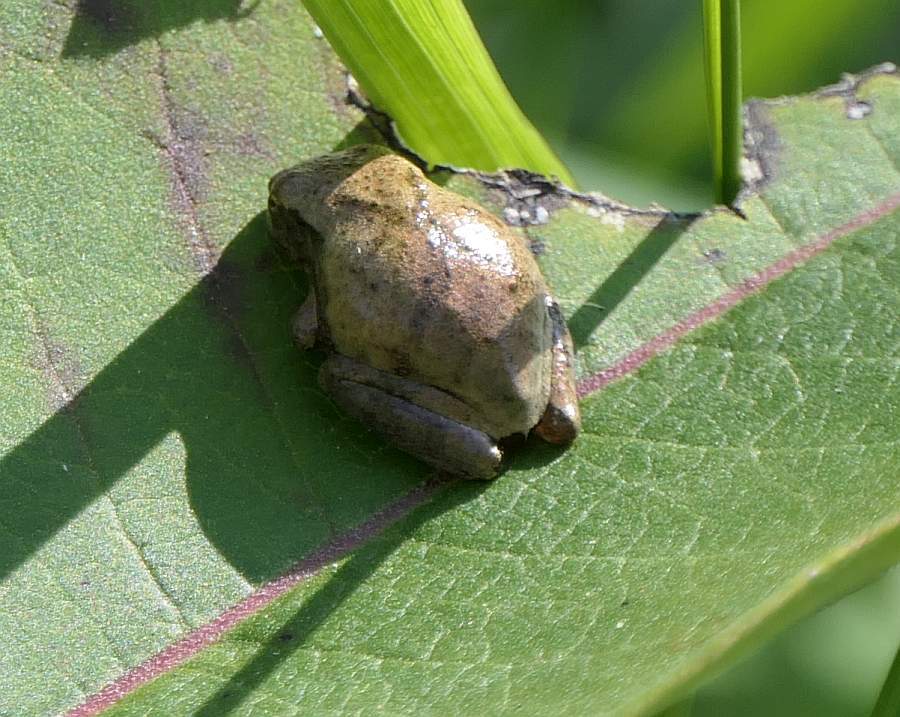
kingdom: Animalia
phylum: Chordata
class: Amphibia
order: Anura
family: Hylidae
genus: Pseudacris
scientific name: Pseudacris crucifer
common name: Spring peeper
